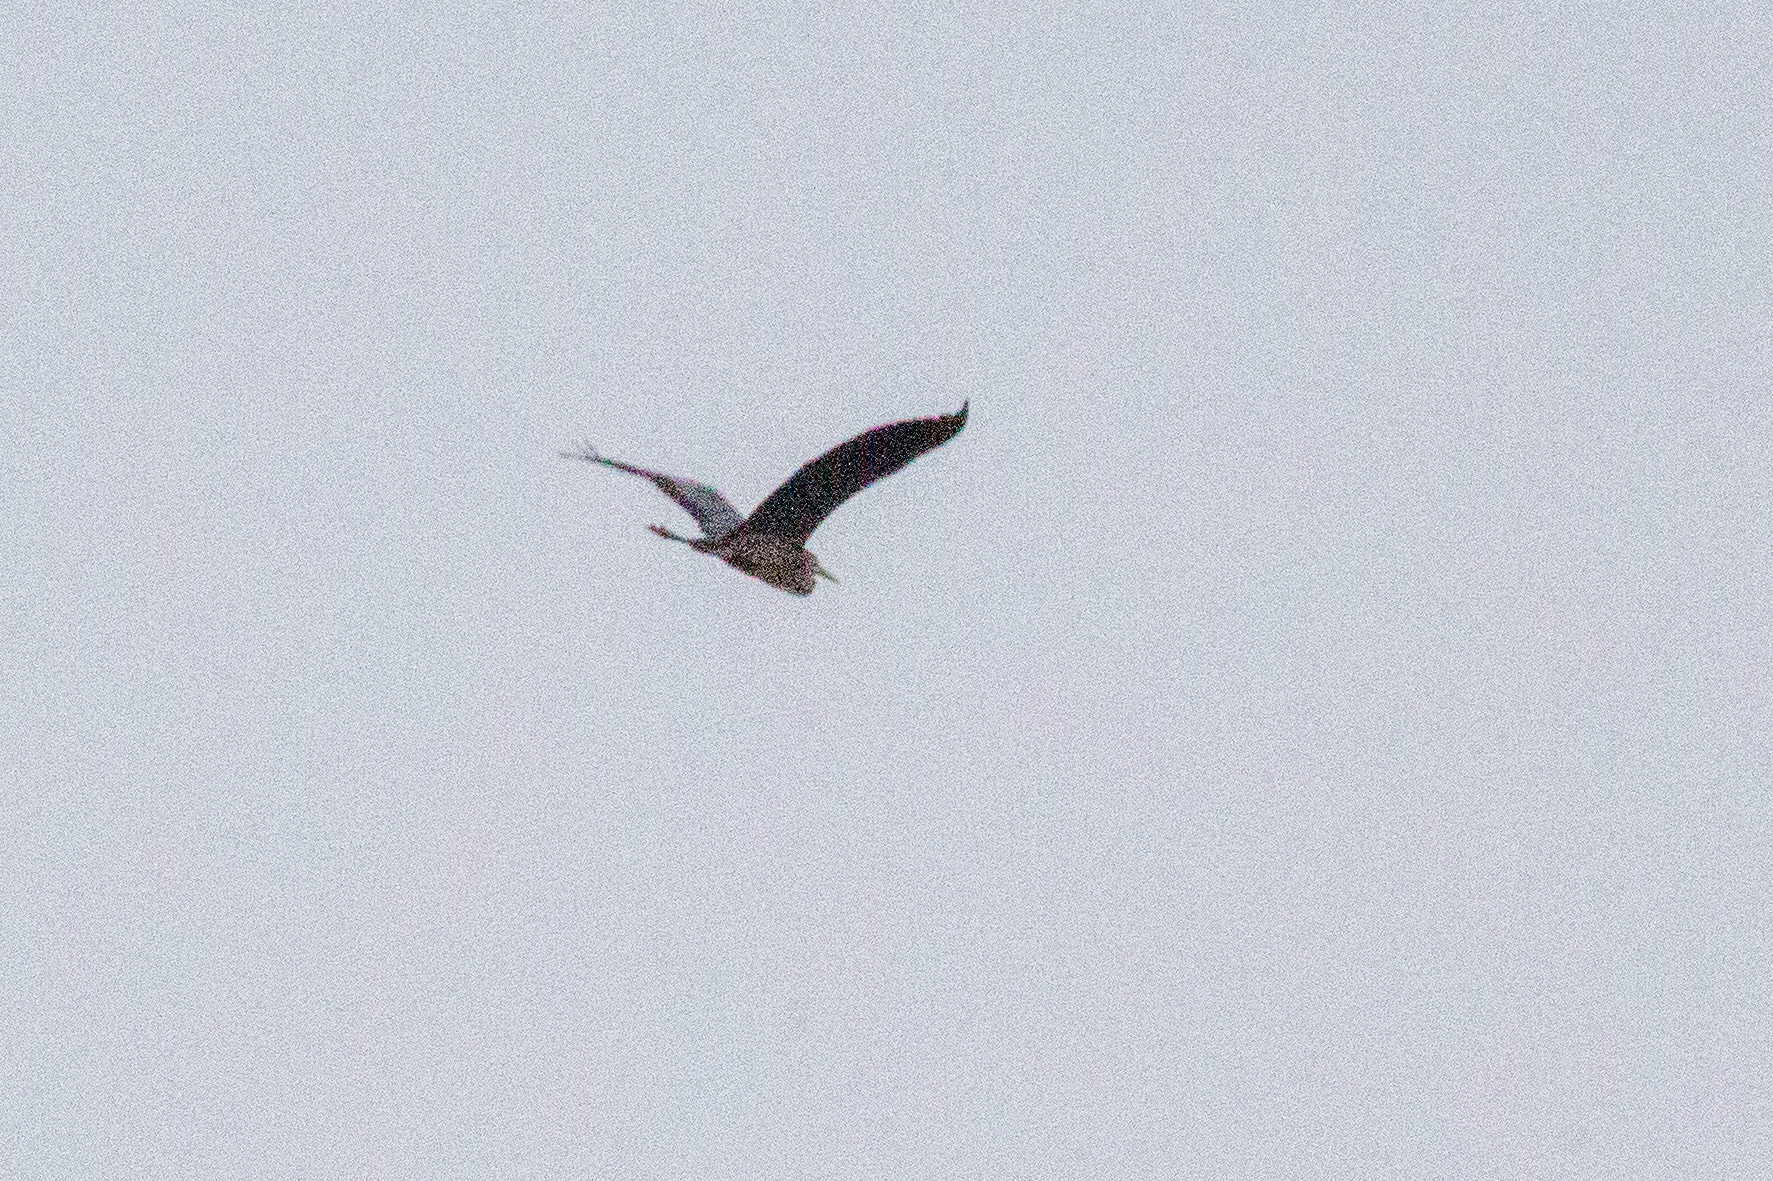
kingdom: Animalia
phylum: Chordata
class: Aves
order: Pelecaniformes
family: Ardeidae
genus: Ardea
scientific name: Ardea cinerea
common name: Grey heron
